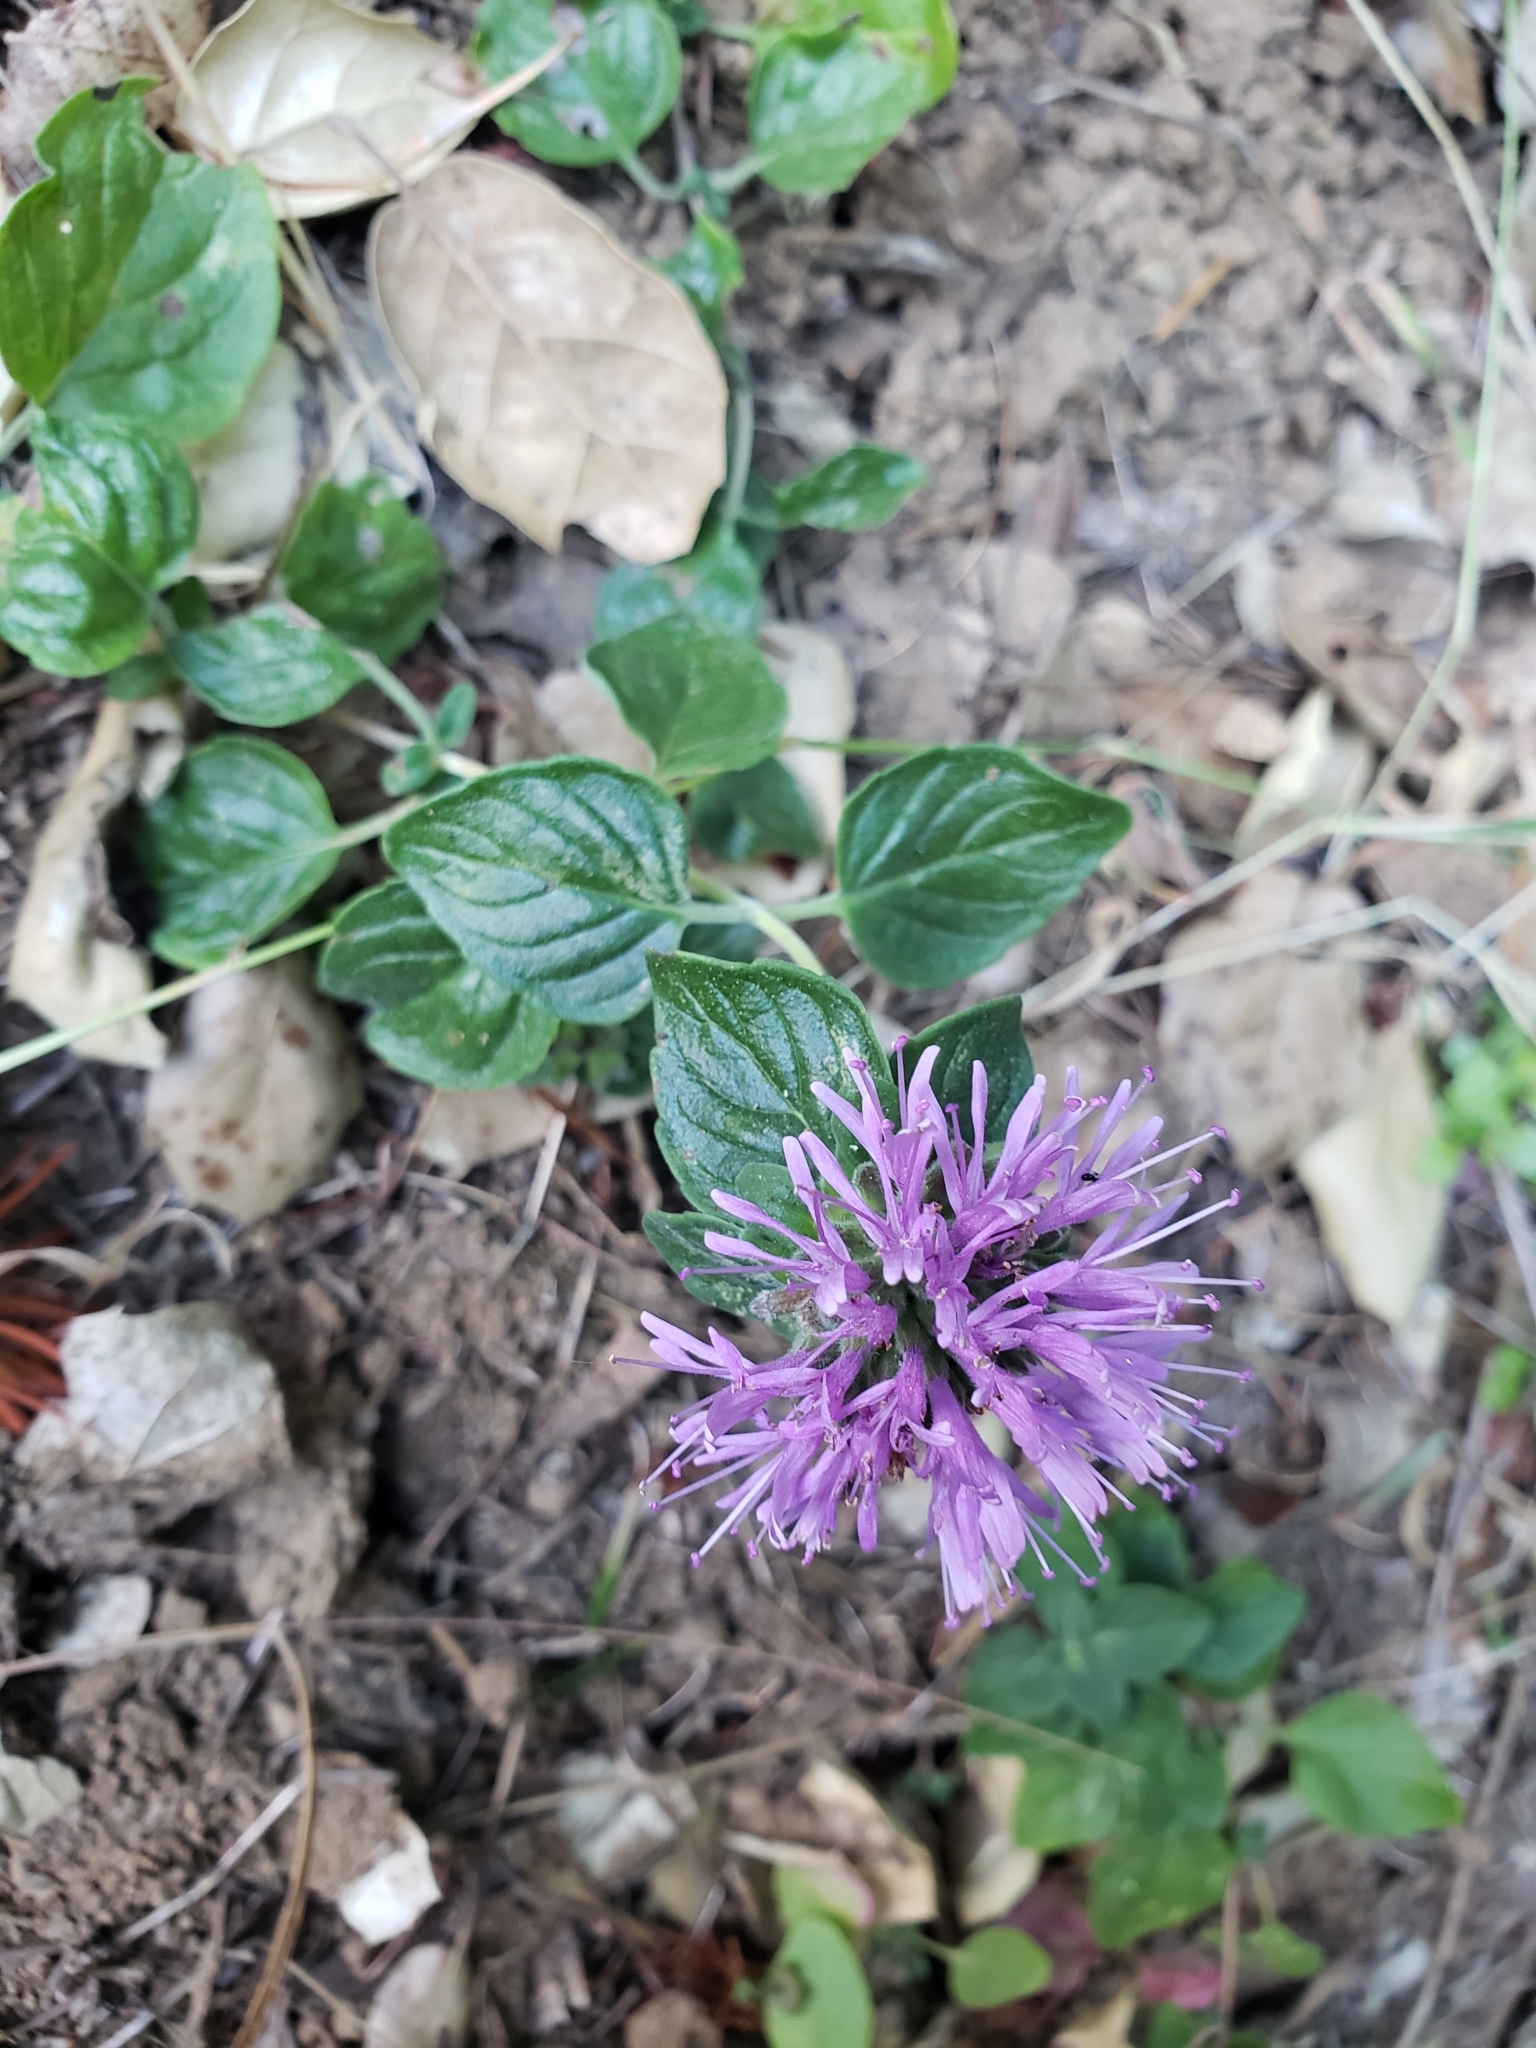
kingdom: Plantae
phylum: Tracheophyta
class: Magnoliopsida
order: Lamiales
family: Lamiaceae
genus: Monardella
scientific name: Monardella odoratissima
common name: Pacific monardella
